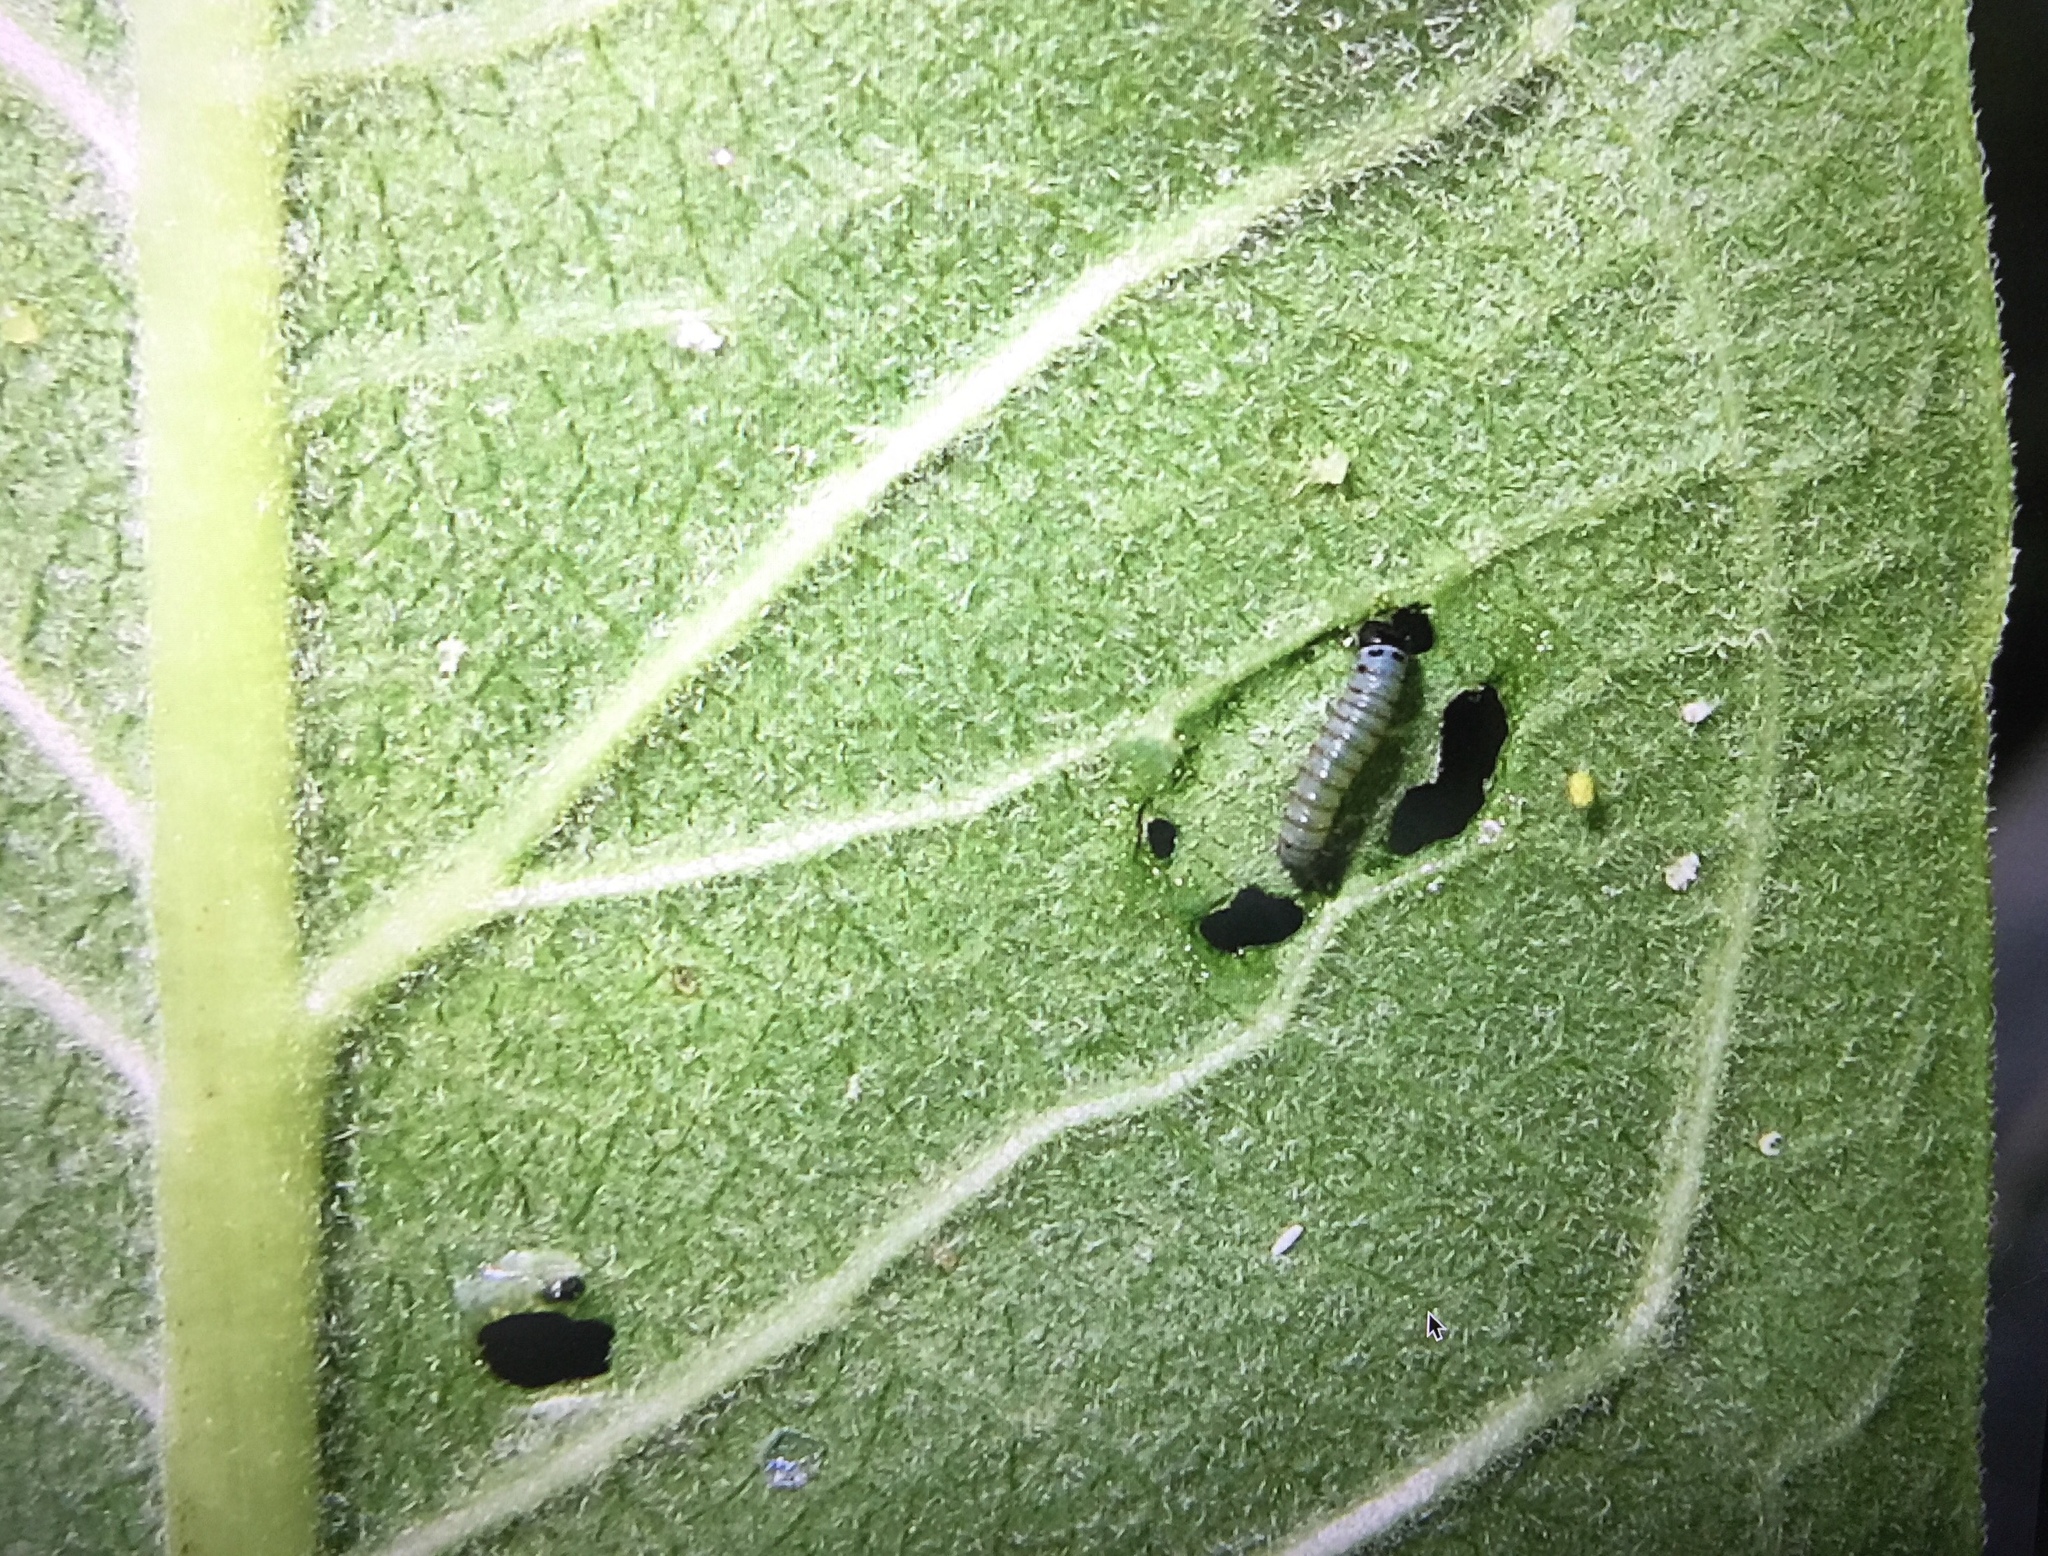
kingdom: Animalia
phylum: Arthropoda
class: Insecta
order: Lepidoptera
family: Nymphalidae
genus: Danaus
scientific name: Danaus plexippus
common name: Monarch
